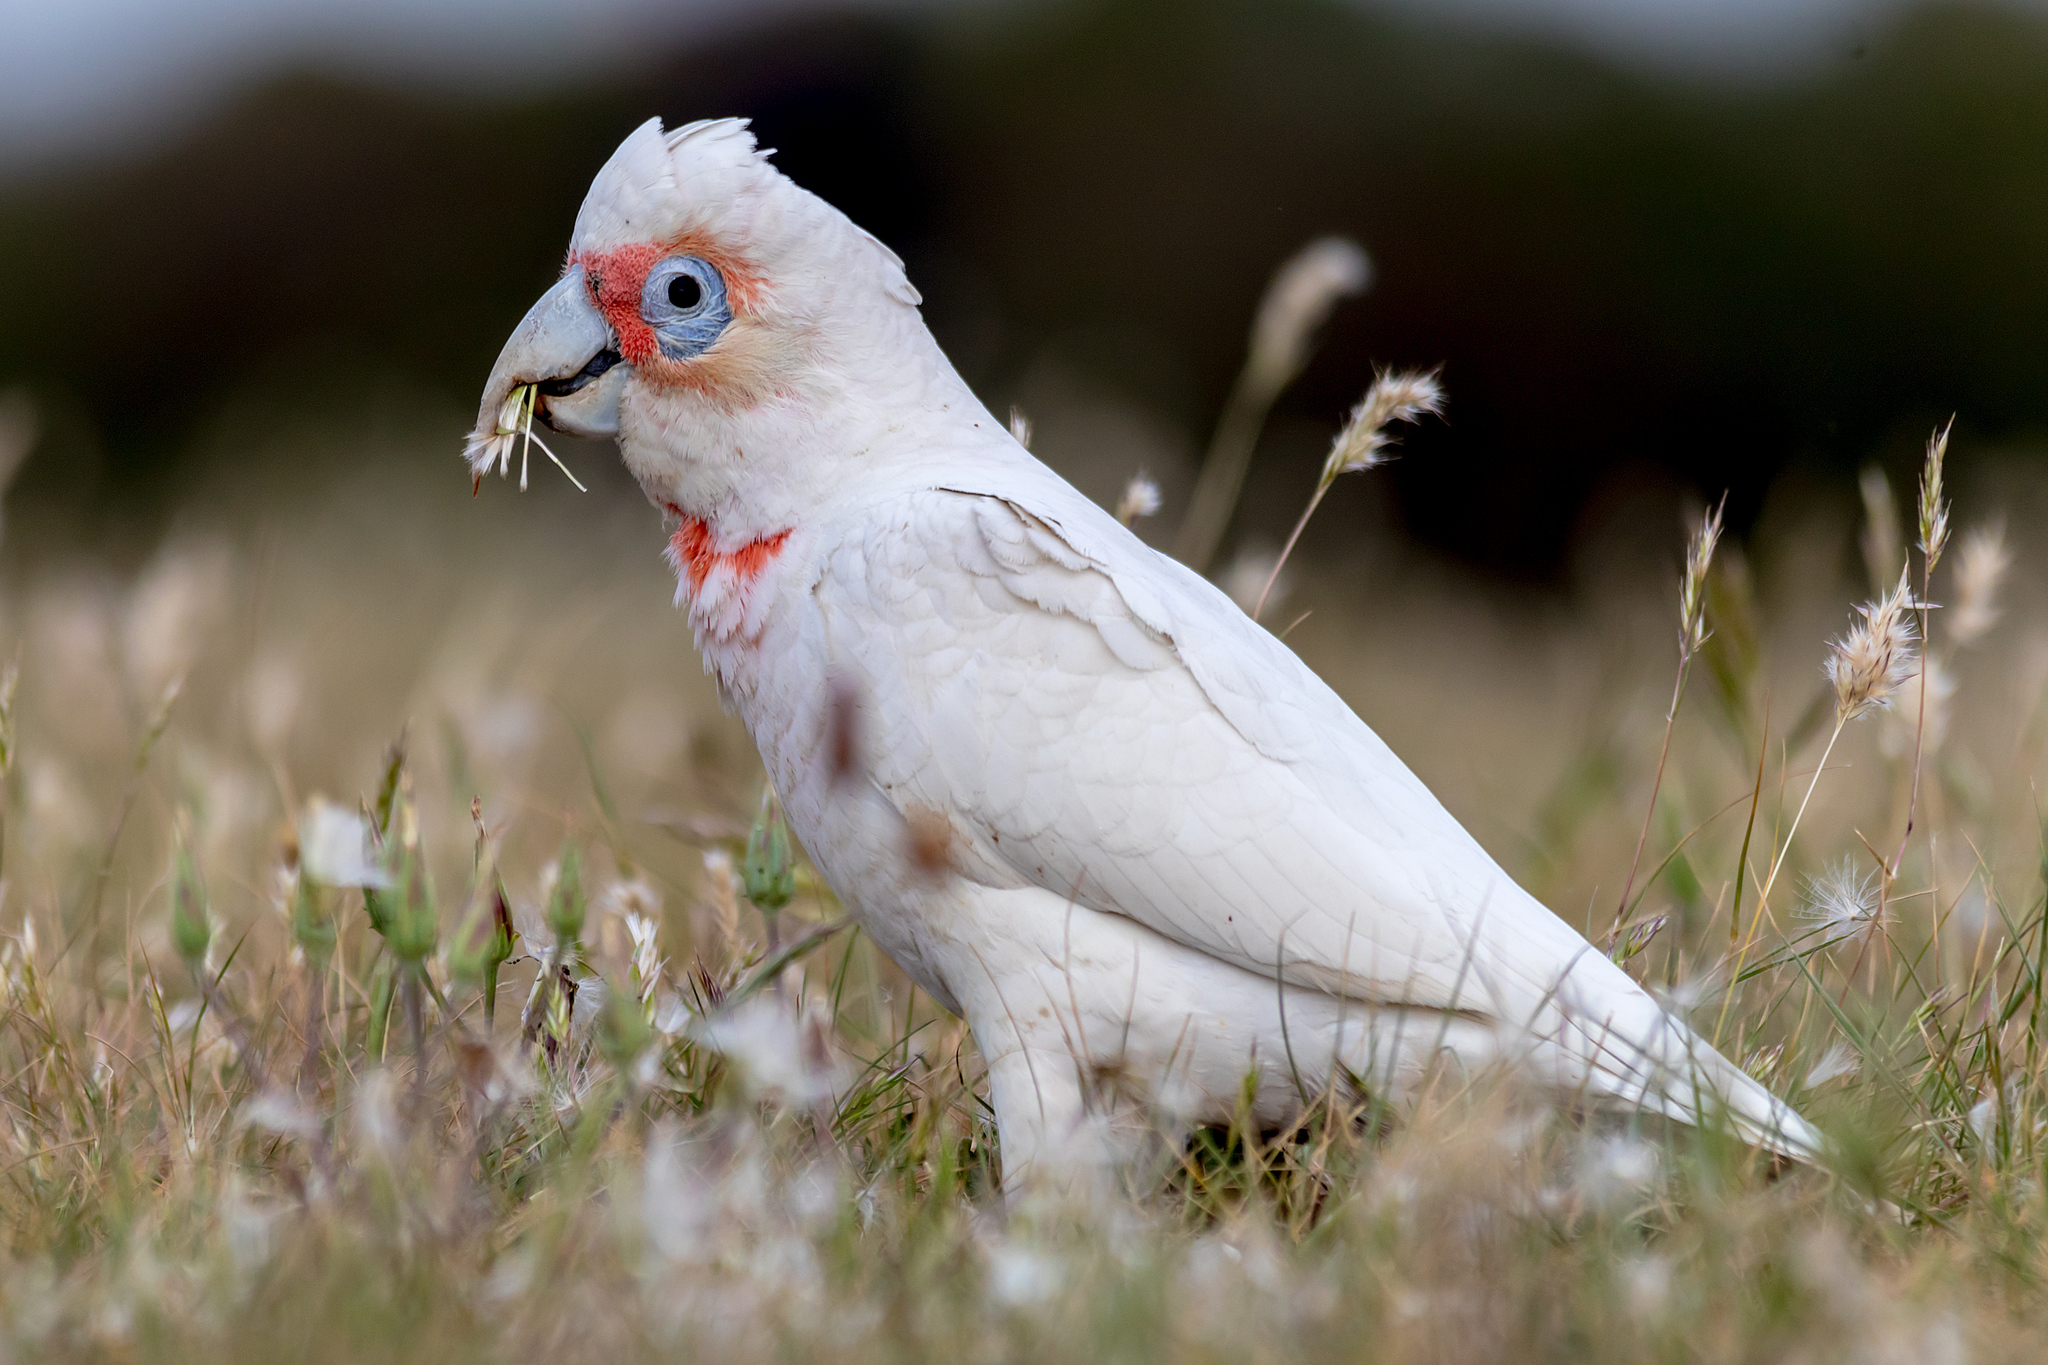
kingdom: Animalia
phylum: Chordata
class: Aves
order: Psittaciformes
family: Psittacidae
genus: Cacatua
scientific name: Cacatua tenuirostris
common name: Long-billed corella
